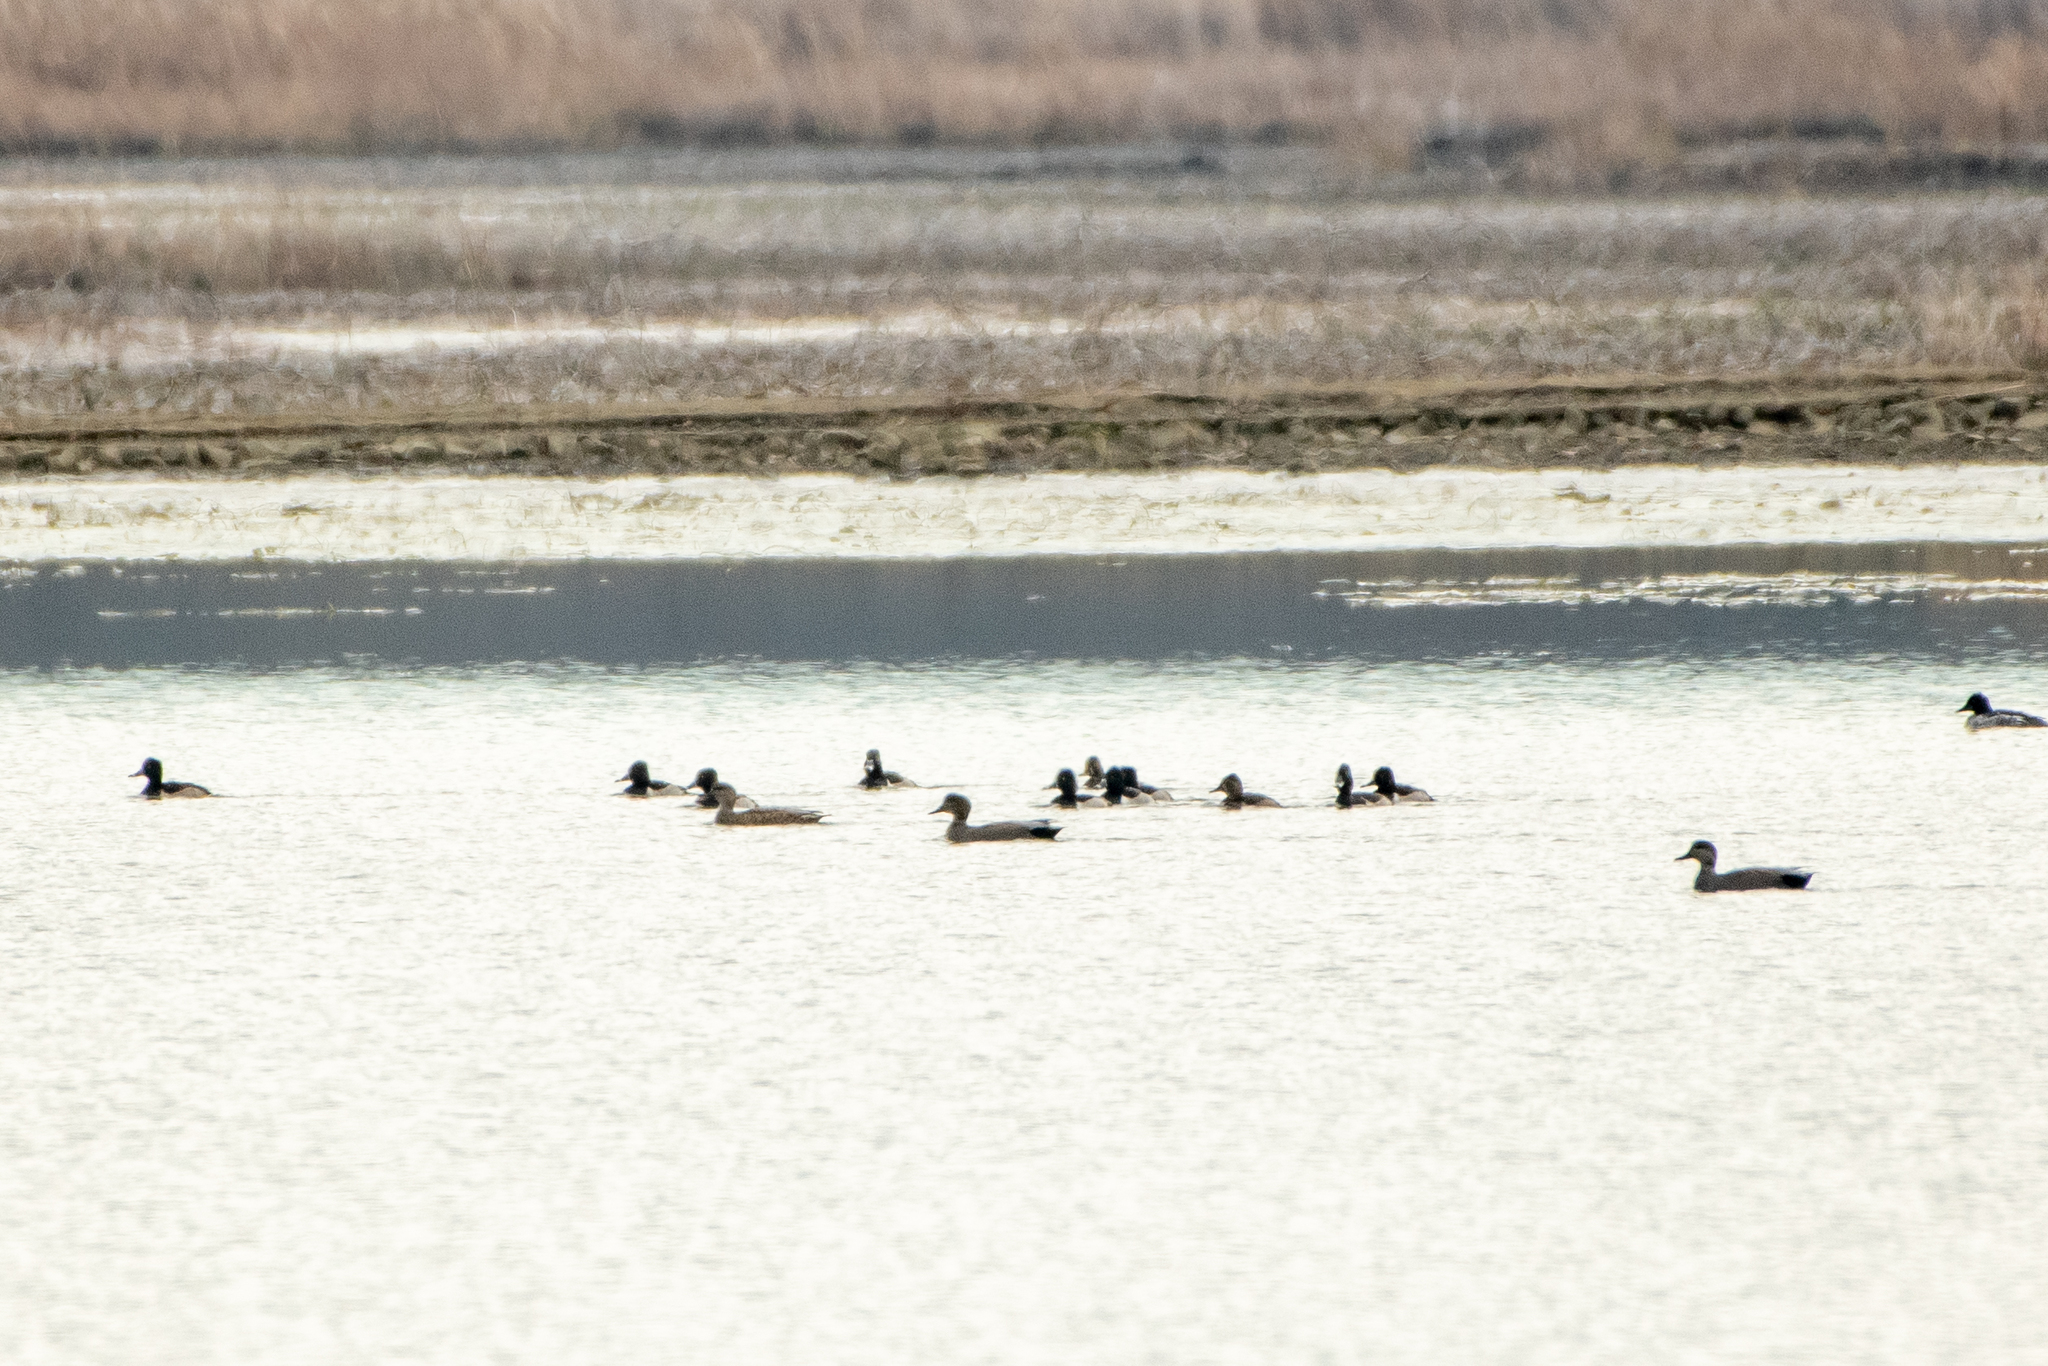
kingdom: Animalia
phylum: Chordata
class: Aves
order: Anseriformes
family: Anatidae
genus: Aythya
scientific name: Aythya collaris
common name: Ring-necked duck
